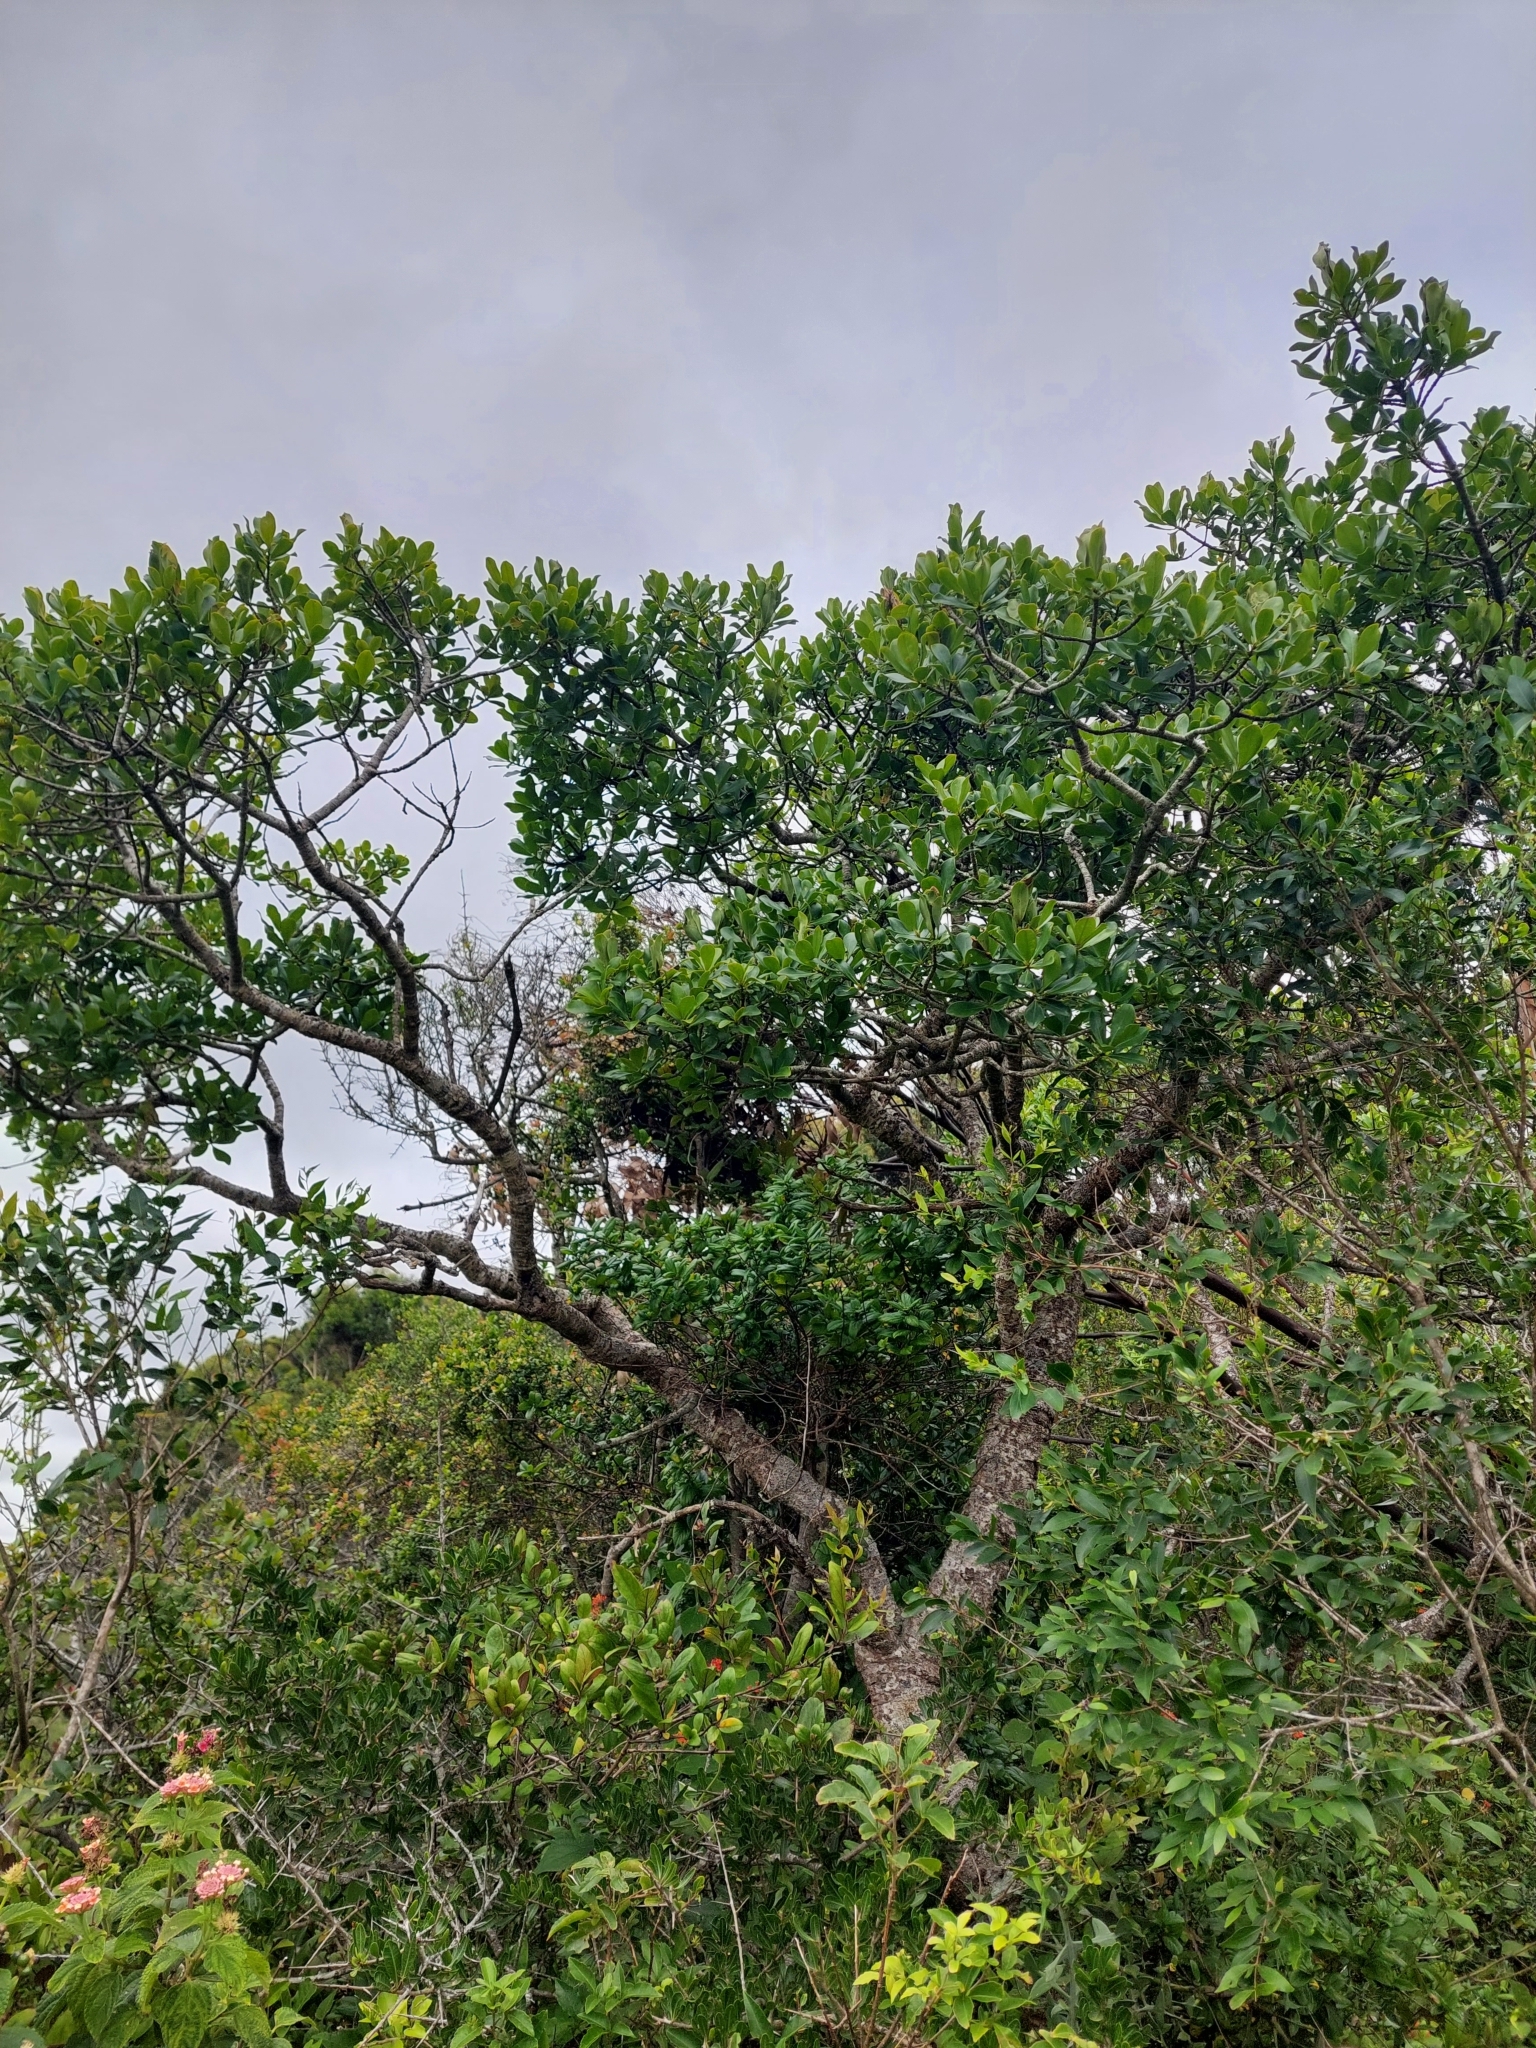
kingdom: Plantae
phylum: Tracheophyta
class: Magnoliopsida
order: Ericales
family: Primulaceae
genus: Myrsine
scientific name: Myrsine laetevirens
